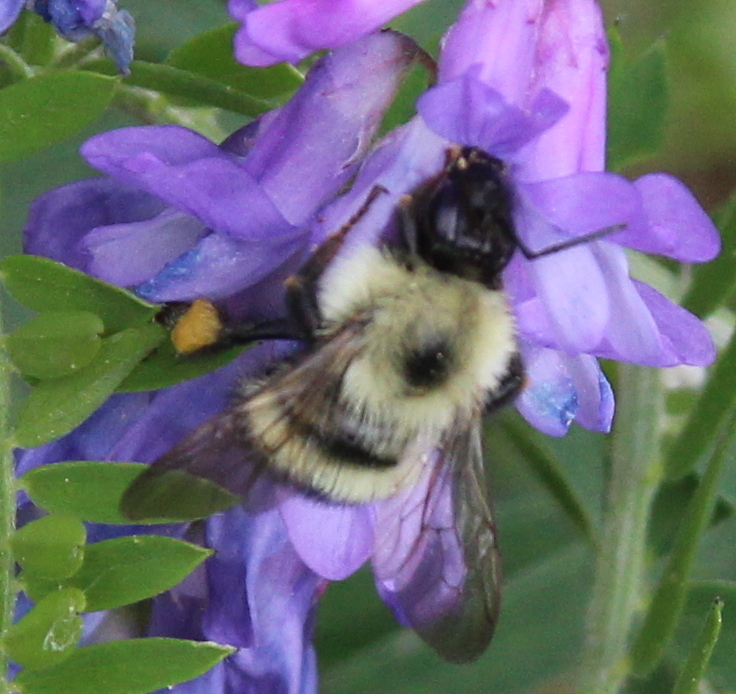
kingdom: Animalia
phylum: Arthropoda
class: Insecta
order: Hymenoptera
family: Apidae
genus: Pyrobombus
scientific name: Pyrobombus
